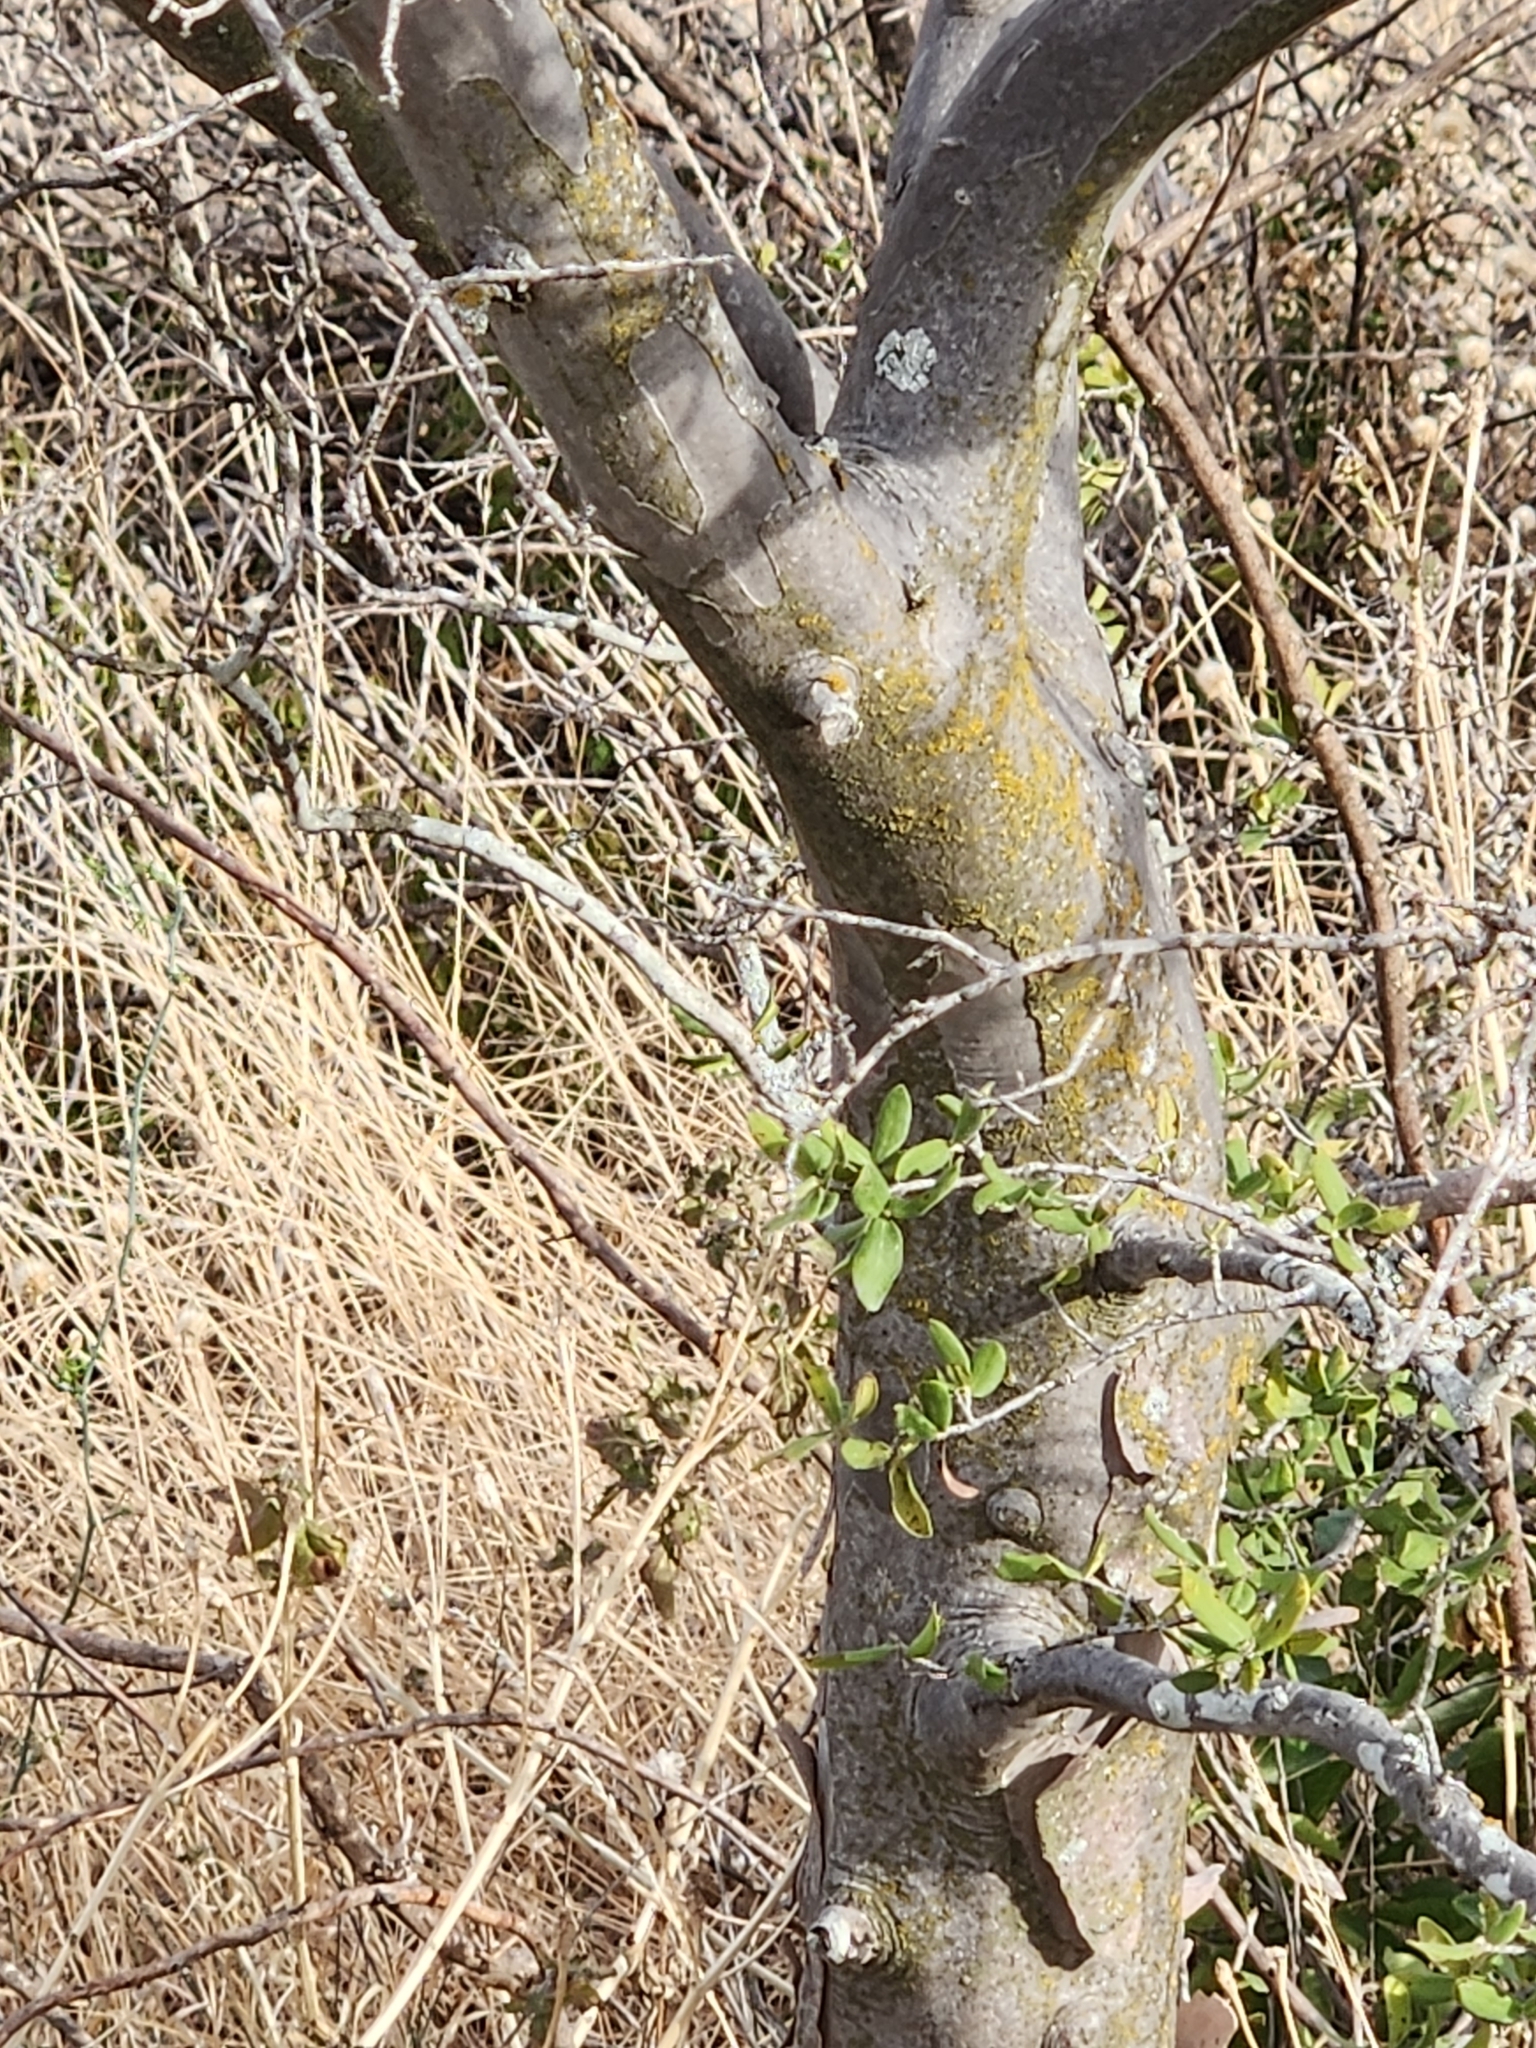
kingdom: Plantae
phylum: Tracheophyta
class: Magnoliopsida
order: Ericales
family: Ebenaceae
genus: Diospyros
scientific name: Diospyros texana
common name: Texas persimmon
